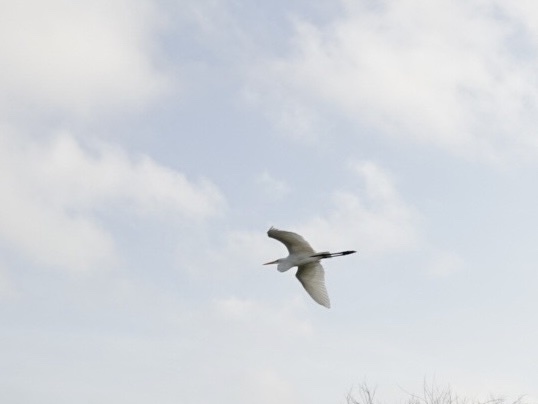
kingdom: Animalia
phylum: Chordata
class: Aves
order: Pelecaniformes
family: Ardeidae
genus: Ardea
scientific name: Ardea alba
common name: Great egret
